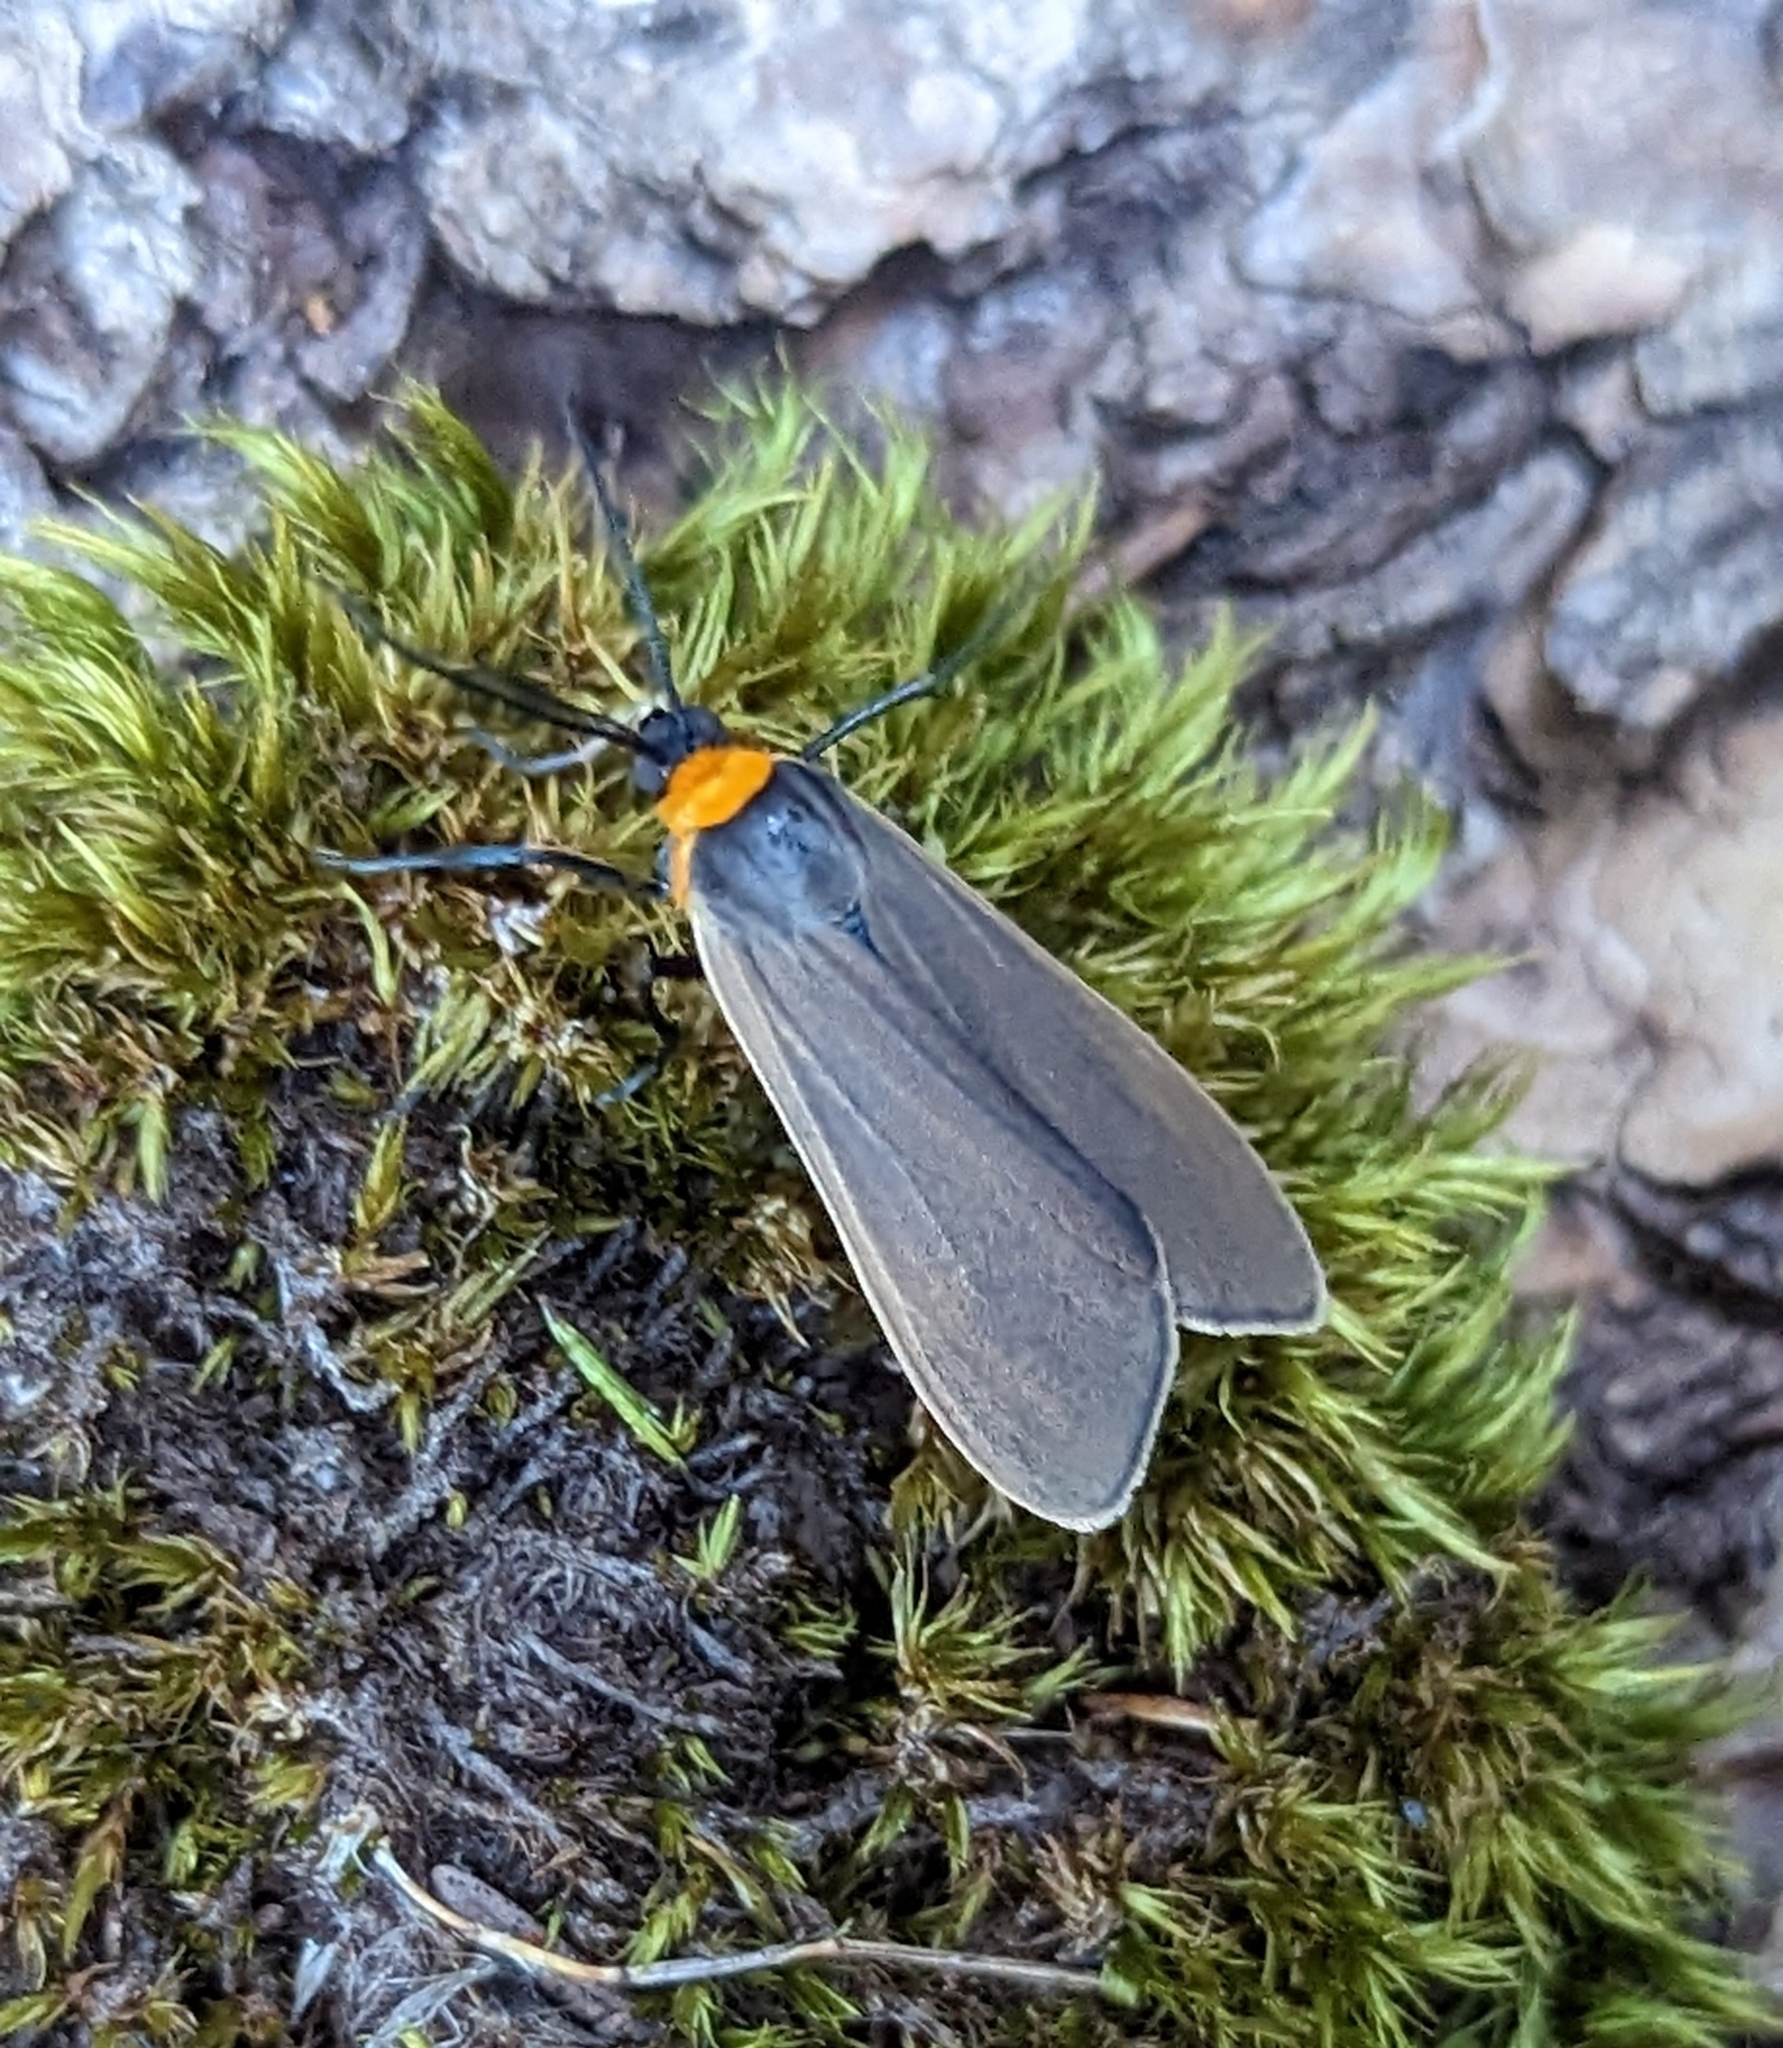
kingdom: Animalia
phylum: Arthropoda
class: Insecta
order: Lepidoptera
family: Erebidae
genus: Cisseps
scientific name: Cisseps fulvicollis
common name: Yellow-collared scape moth
